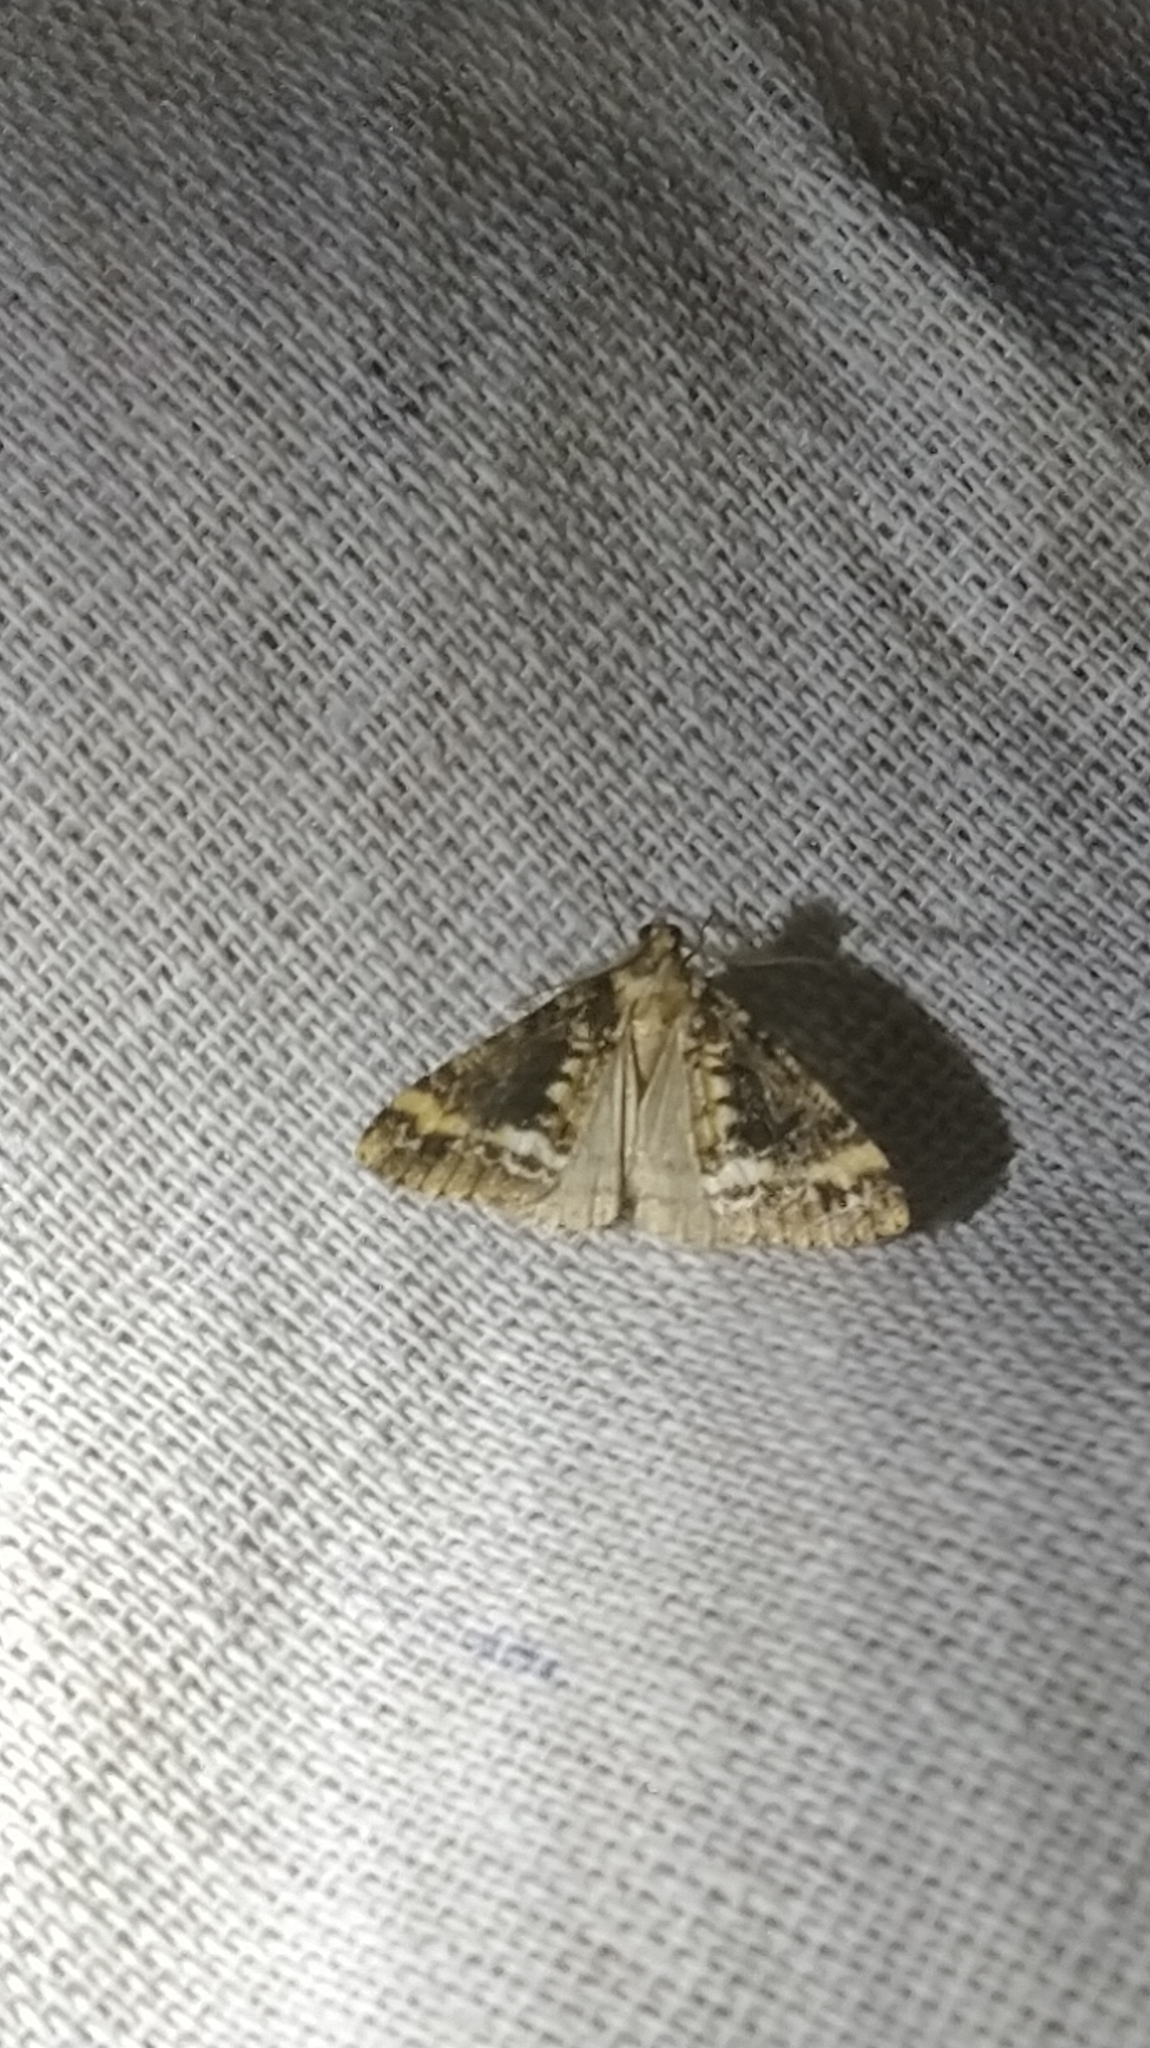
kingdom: Animalia
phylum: Arthropoda
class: Insecta
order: Lepidoptera
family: Geometridae
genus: Pseudocoremia
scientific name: Pseudocoremia leucelaea
